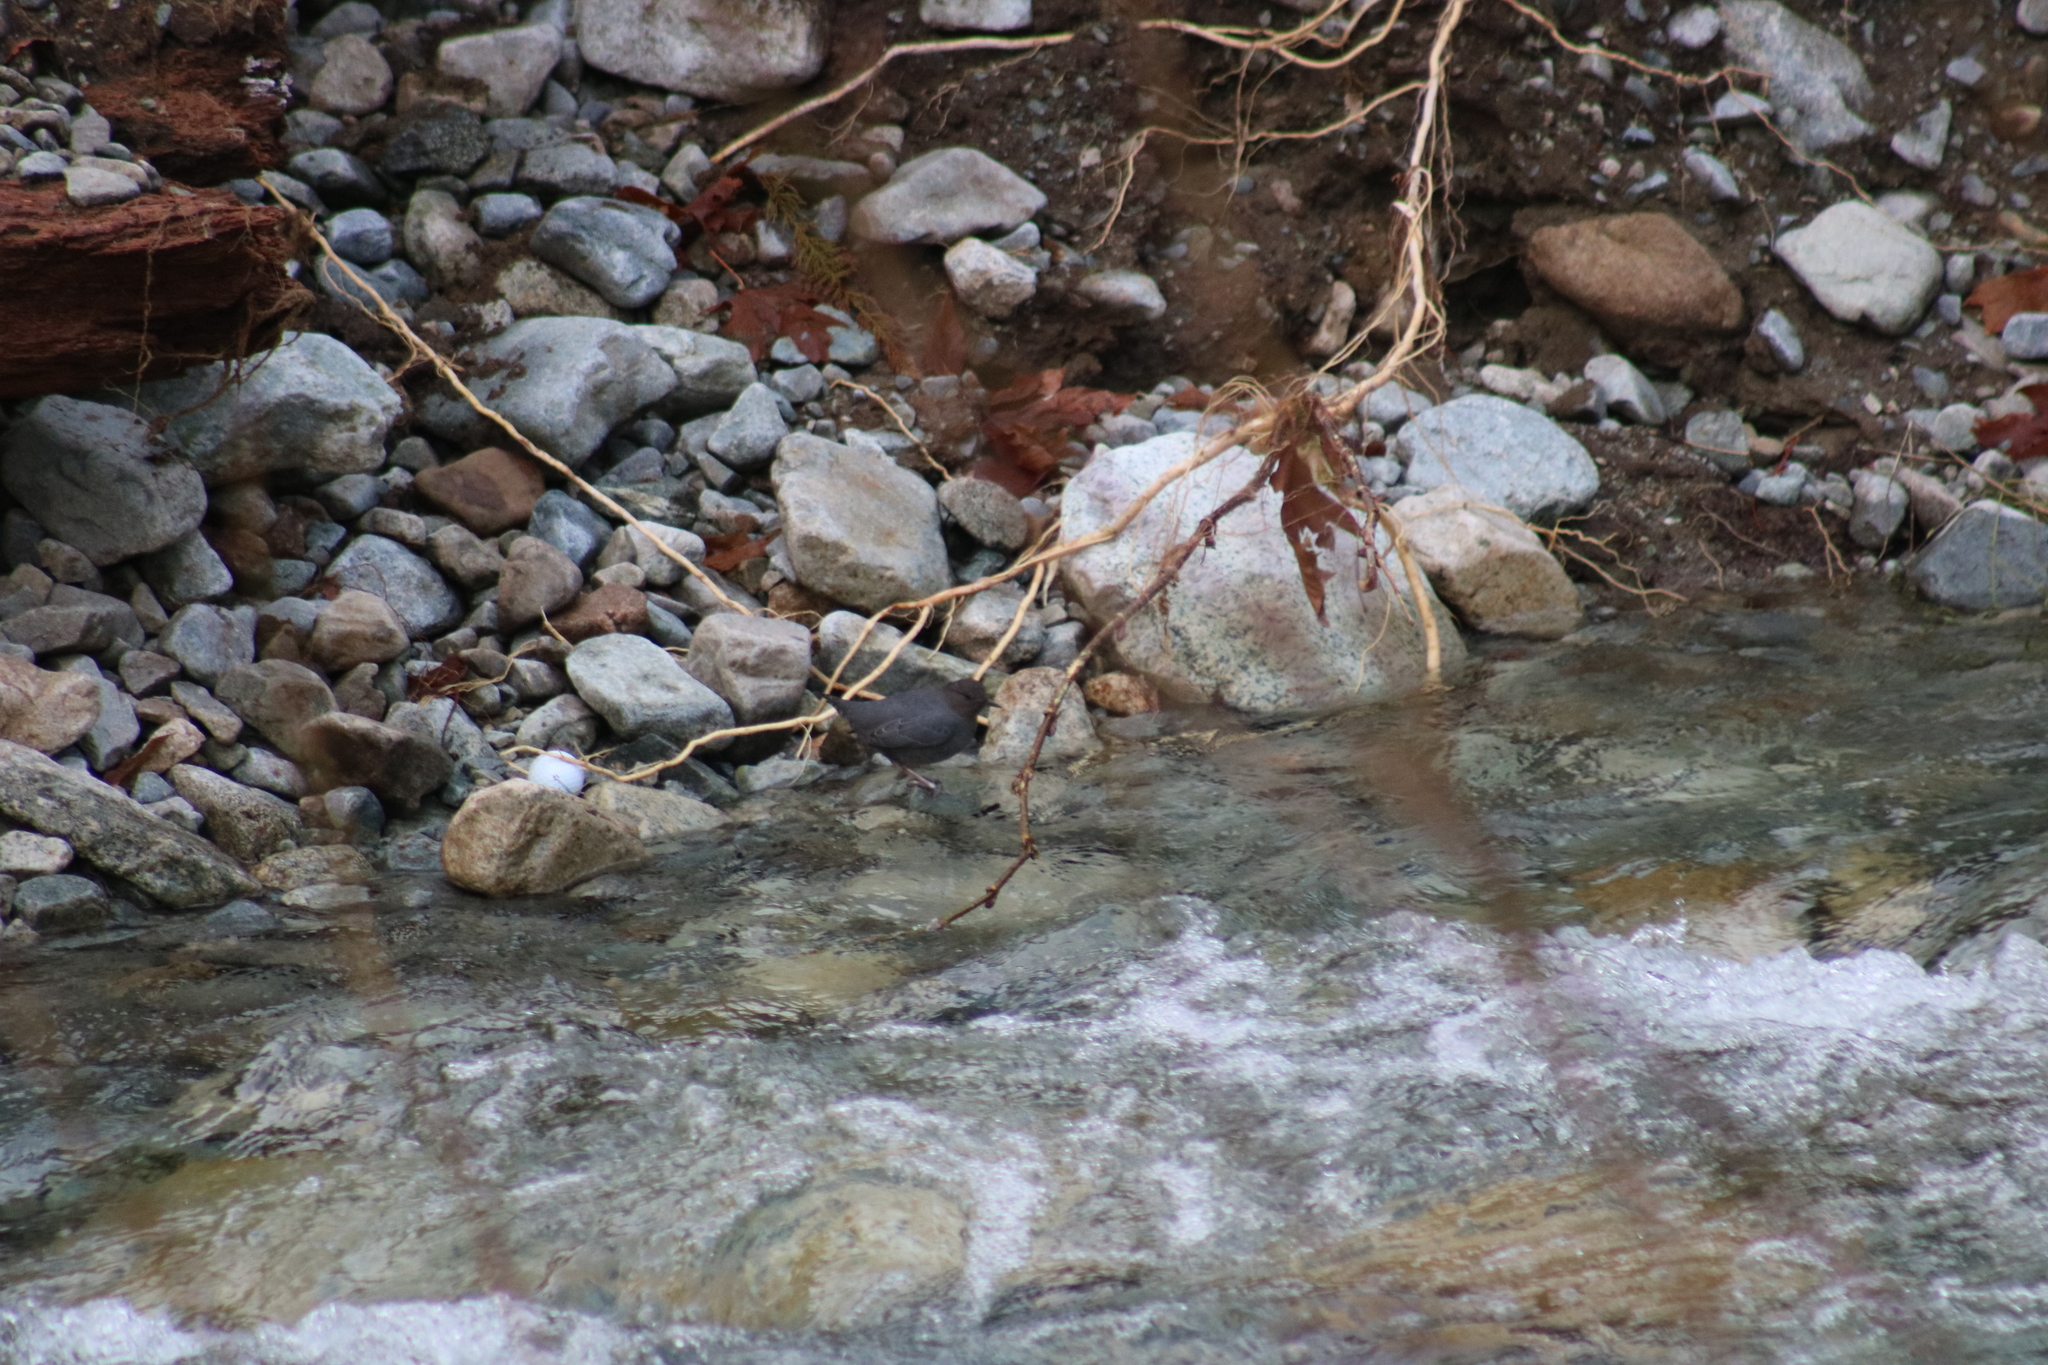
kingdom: Animalia
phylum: Chordata
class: Aves
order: Passeriformes
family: Cinclidae
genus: Cinclus
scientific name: Cinclus mexicanus
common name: American dipper
